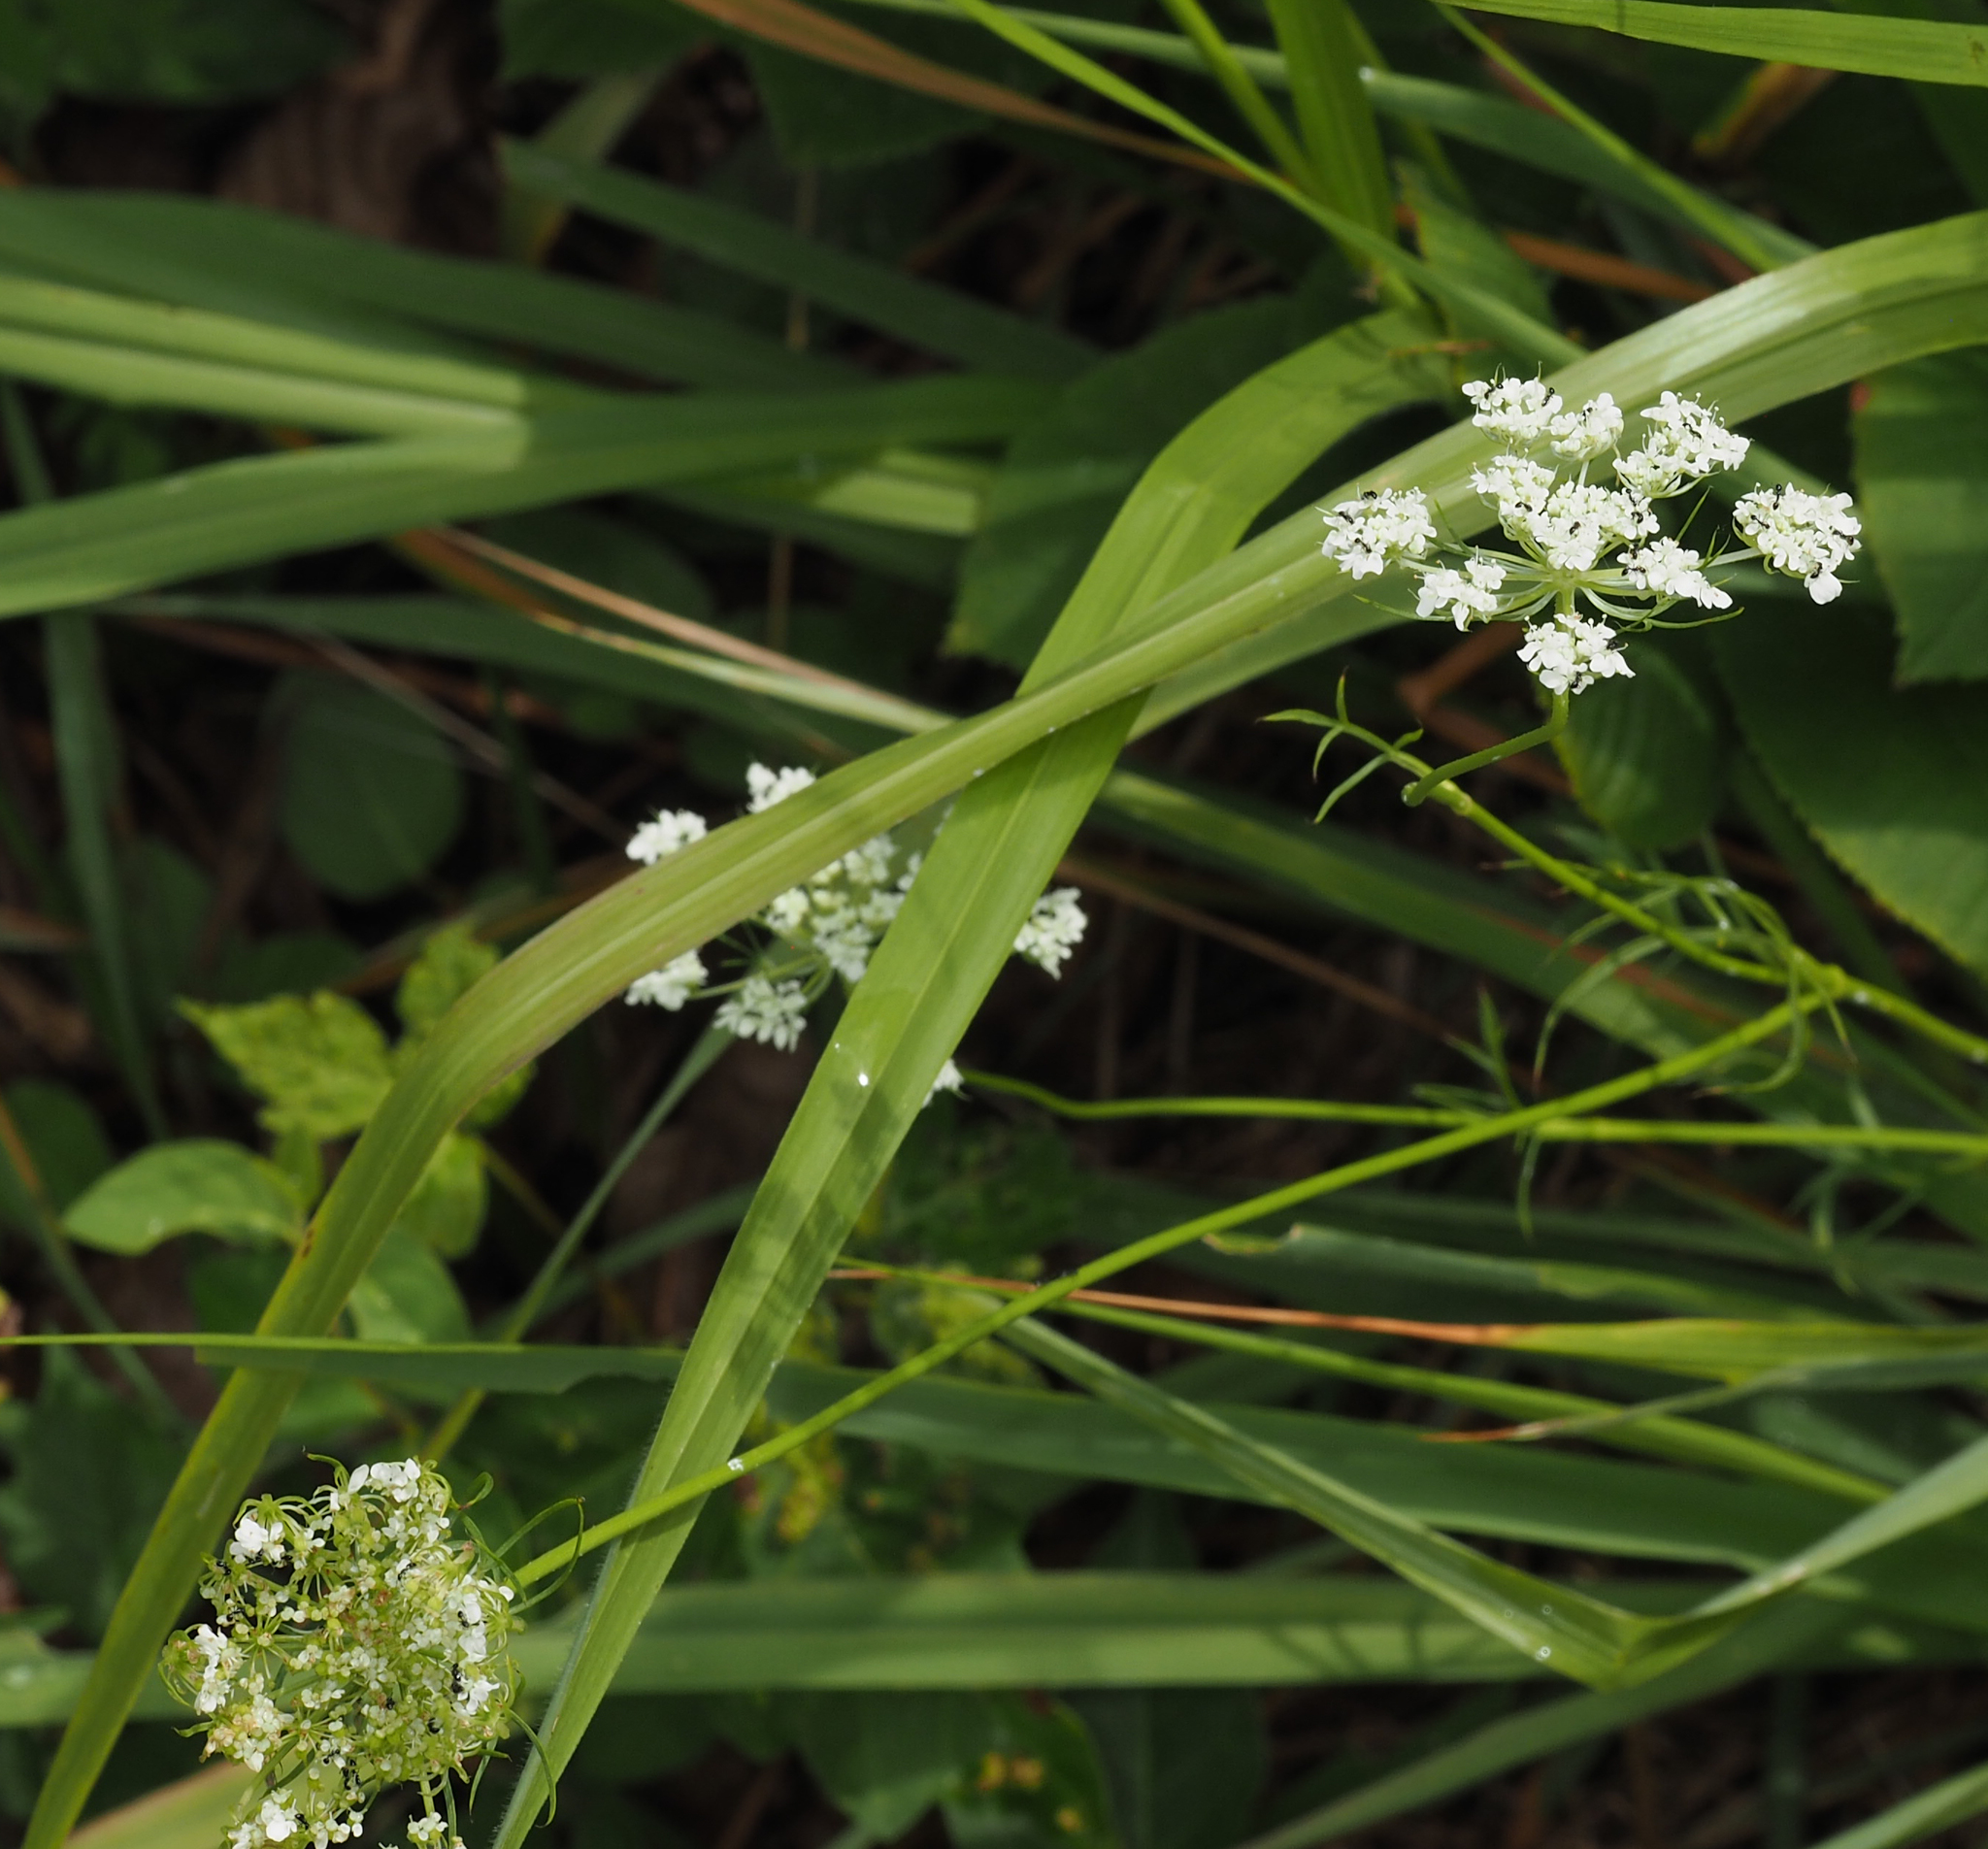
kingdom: Plantae
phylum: Tracheophyta
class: Magnoliopsida
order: Apiales
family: Apiaceae
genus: Daucus
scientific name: Daucus carota
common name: Wild carrot
